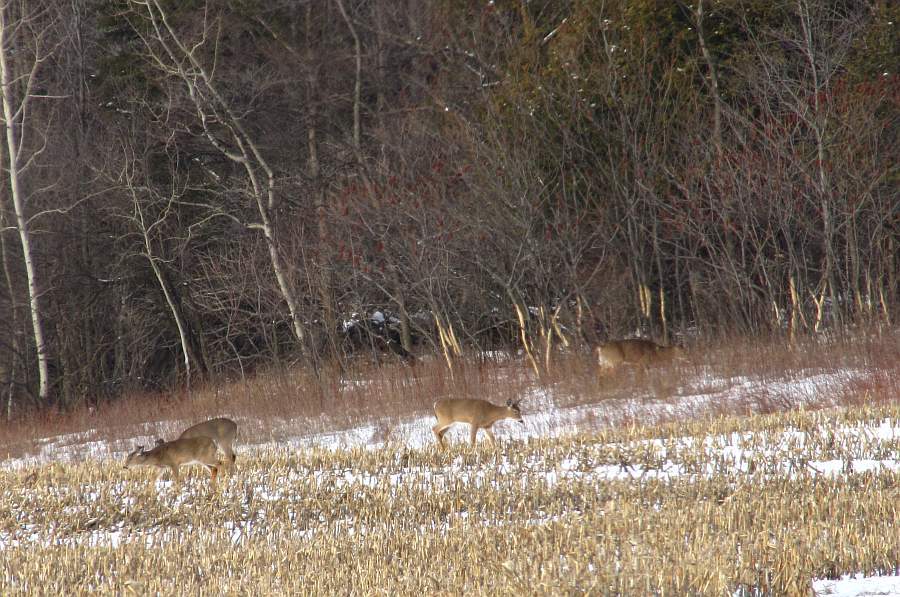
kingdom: Animalia
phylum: Chordata
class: Mammalia
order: Artiodactyla
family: Cervidae
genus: Odocoileus
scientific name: Odocoileus virginianus
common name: White-tailed deer
